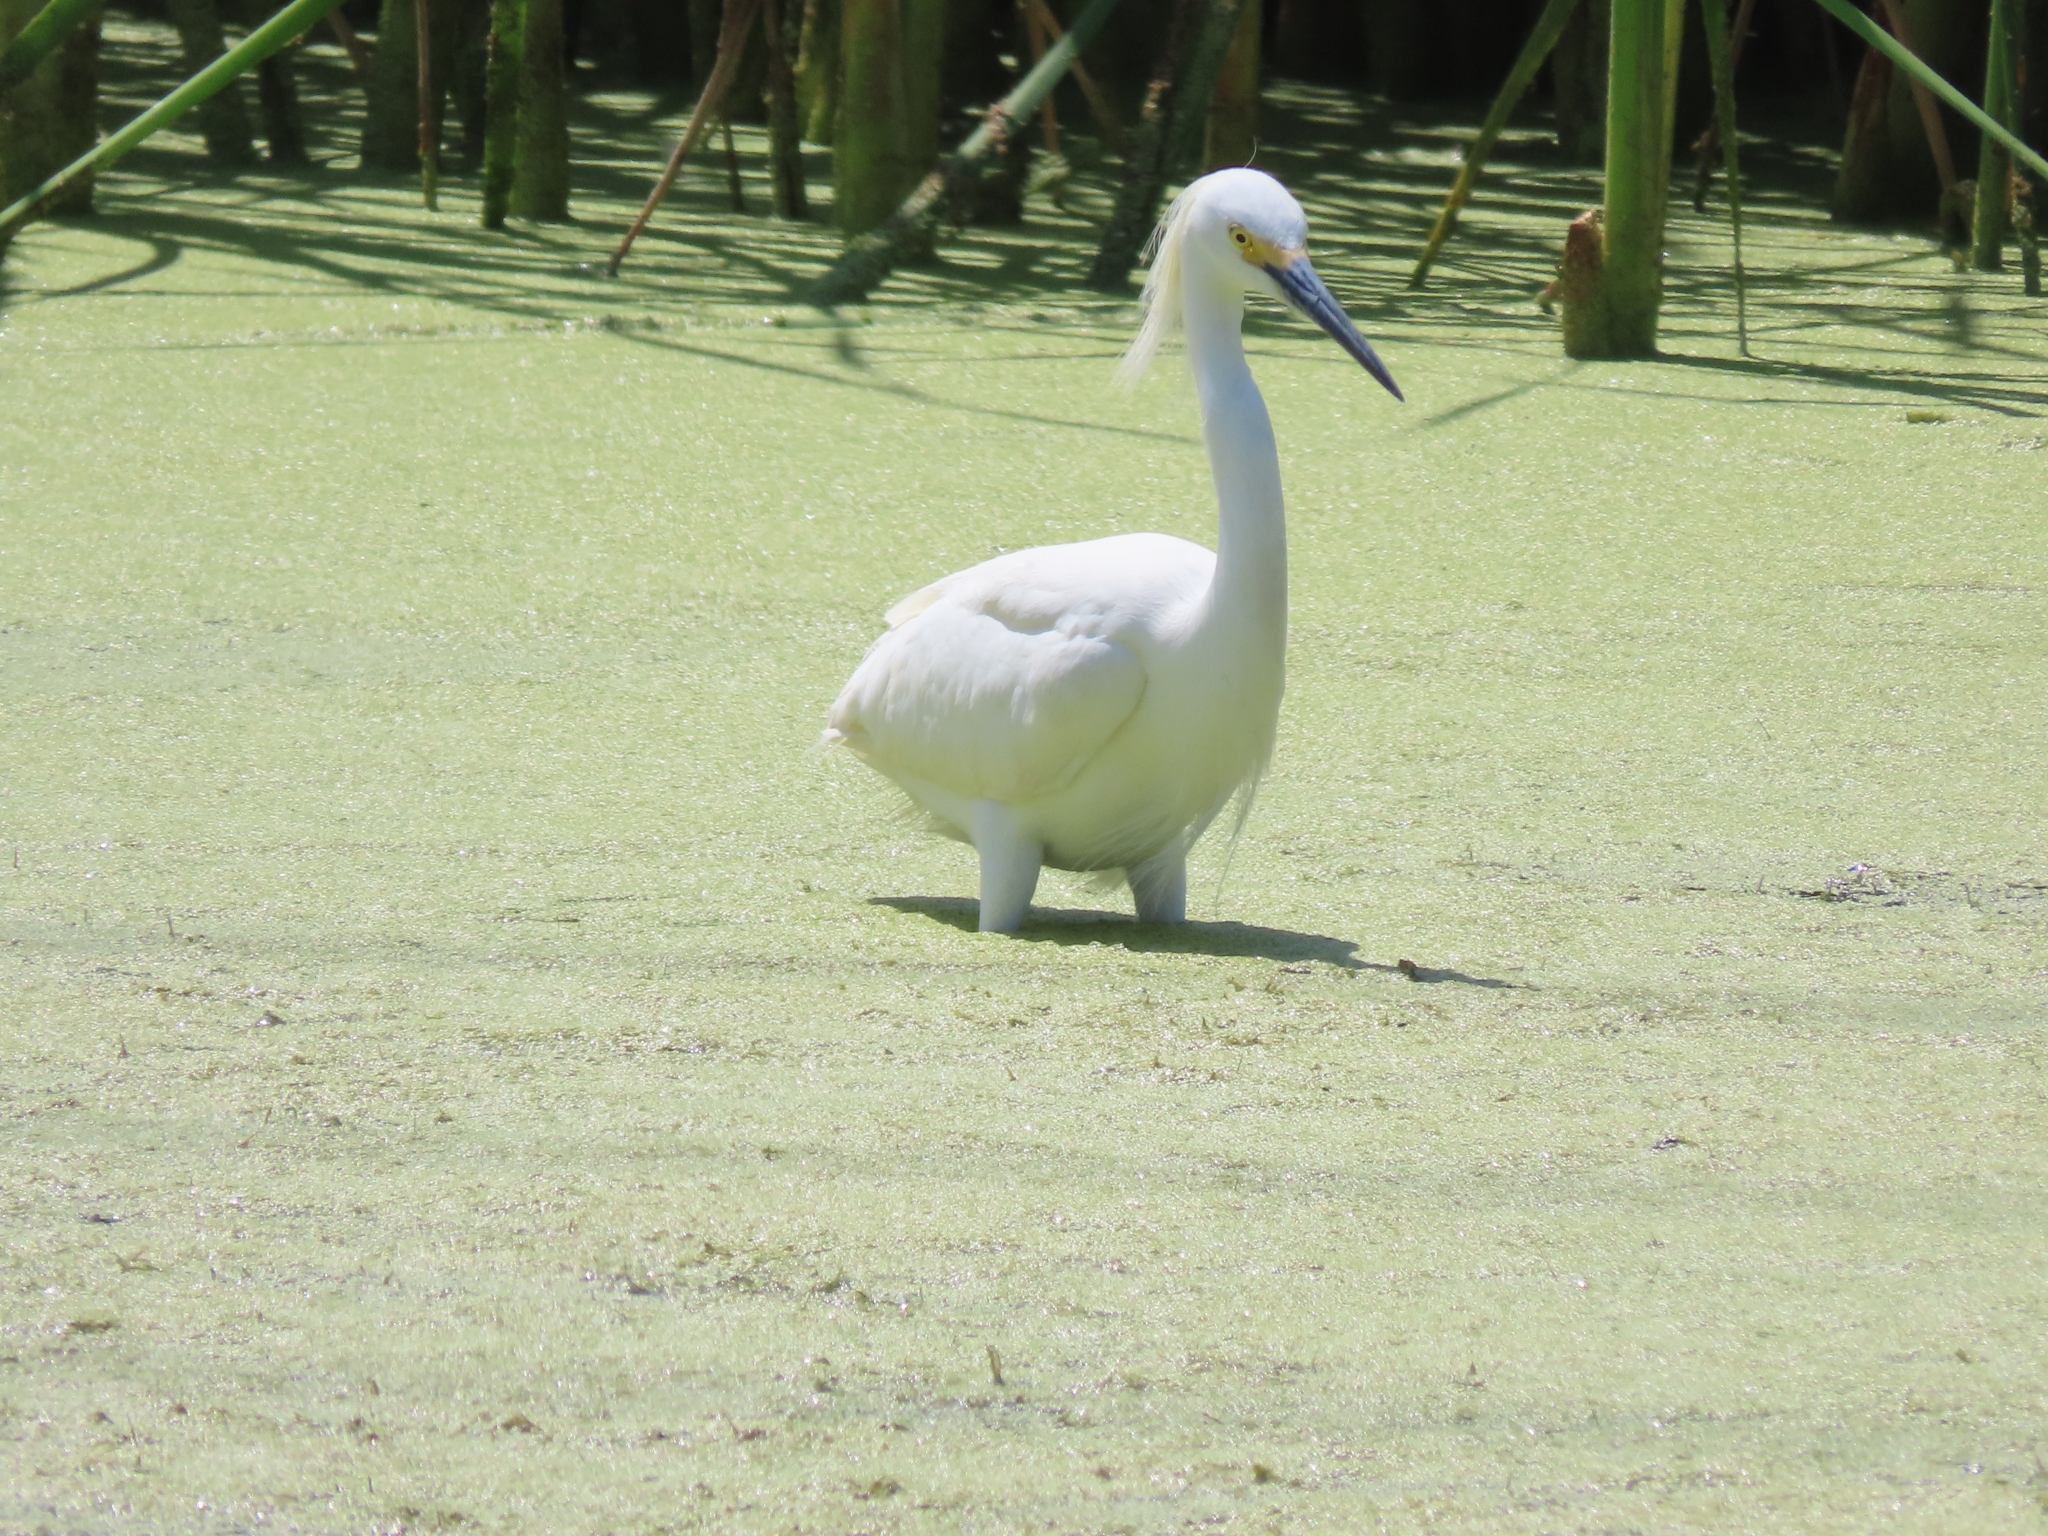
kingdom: Animalia
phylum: Chordata
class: Aves
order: Pelecaniformes
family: Ardeidae
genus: Egretta
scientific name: Egretta thula
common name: Snowy egret
